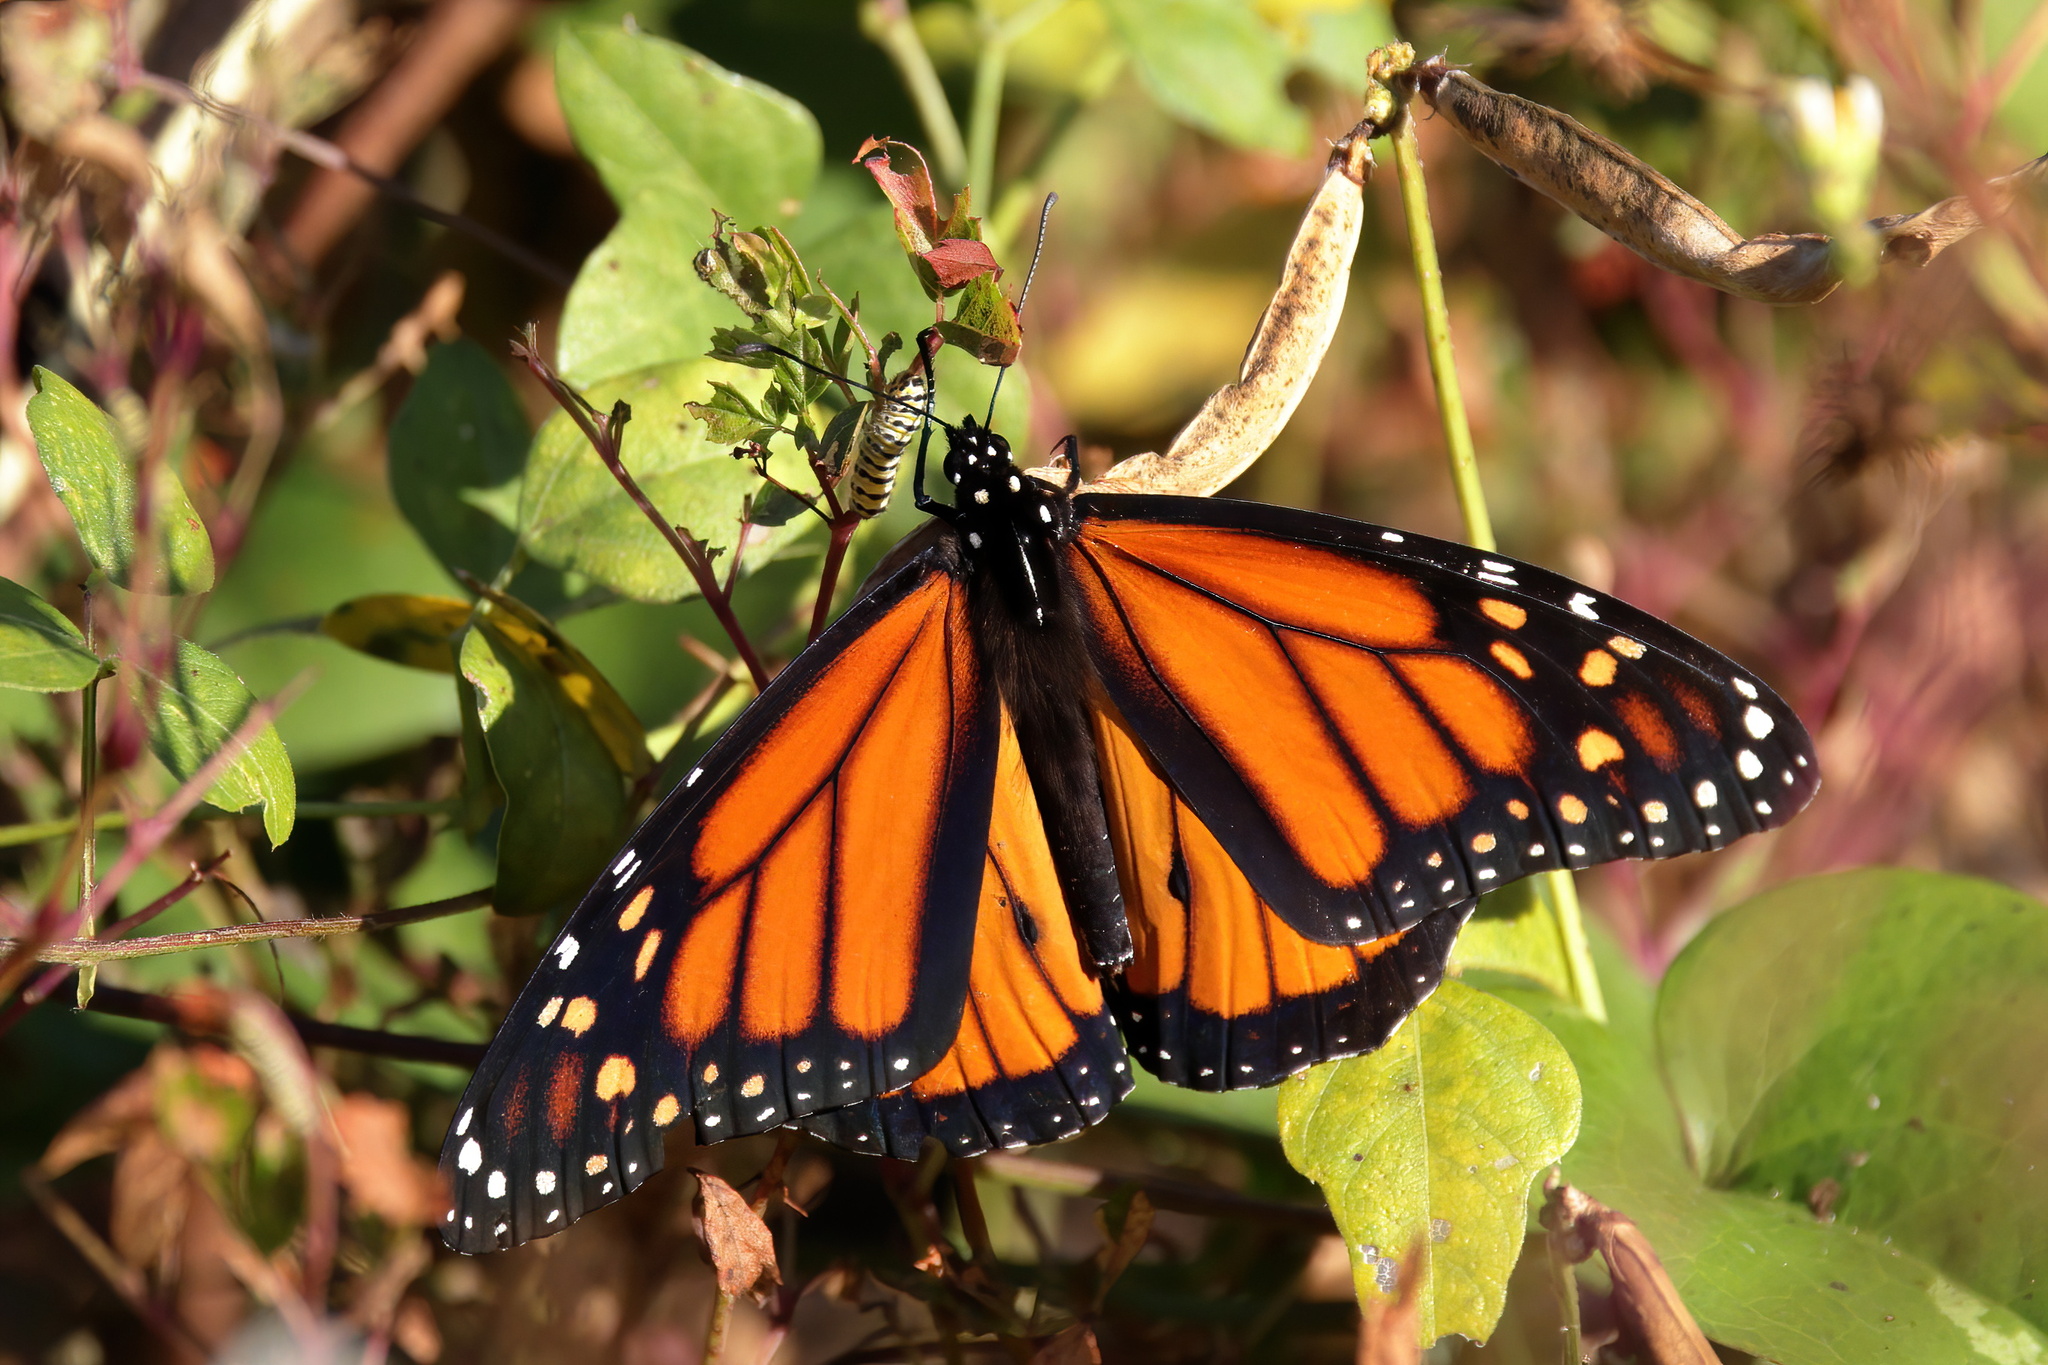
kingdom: Animalia
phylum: Arthropoda
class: Insecta
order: Lepidoptera
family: Nymphalidae
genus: Danaus
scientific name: Danaus plexippus
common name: Monarch
